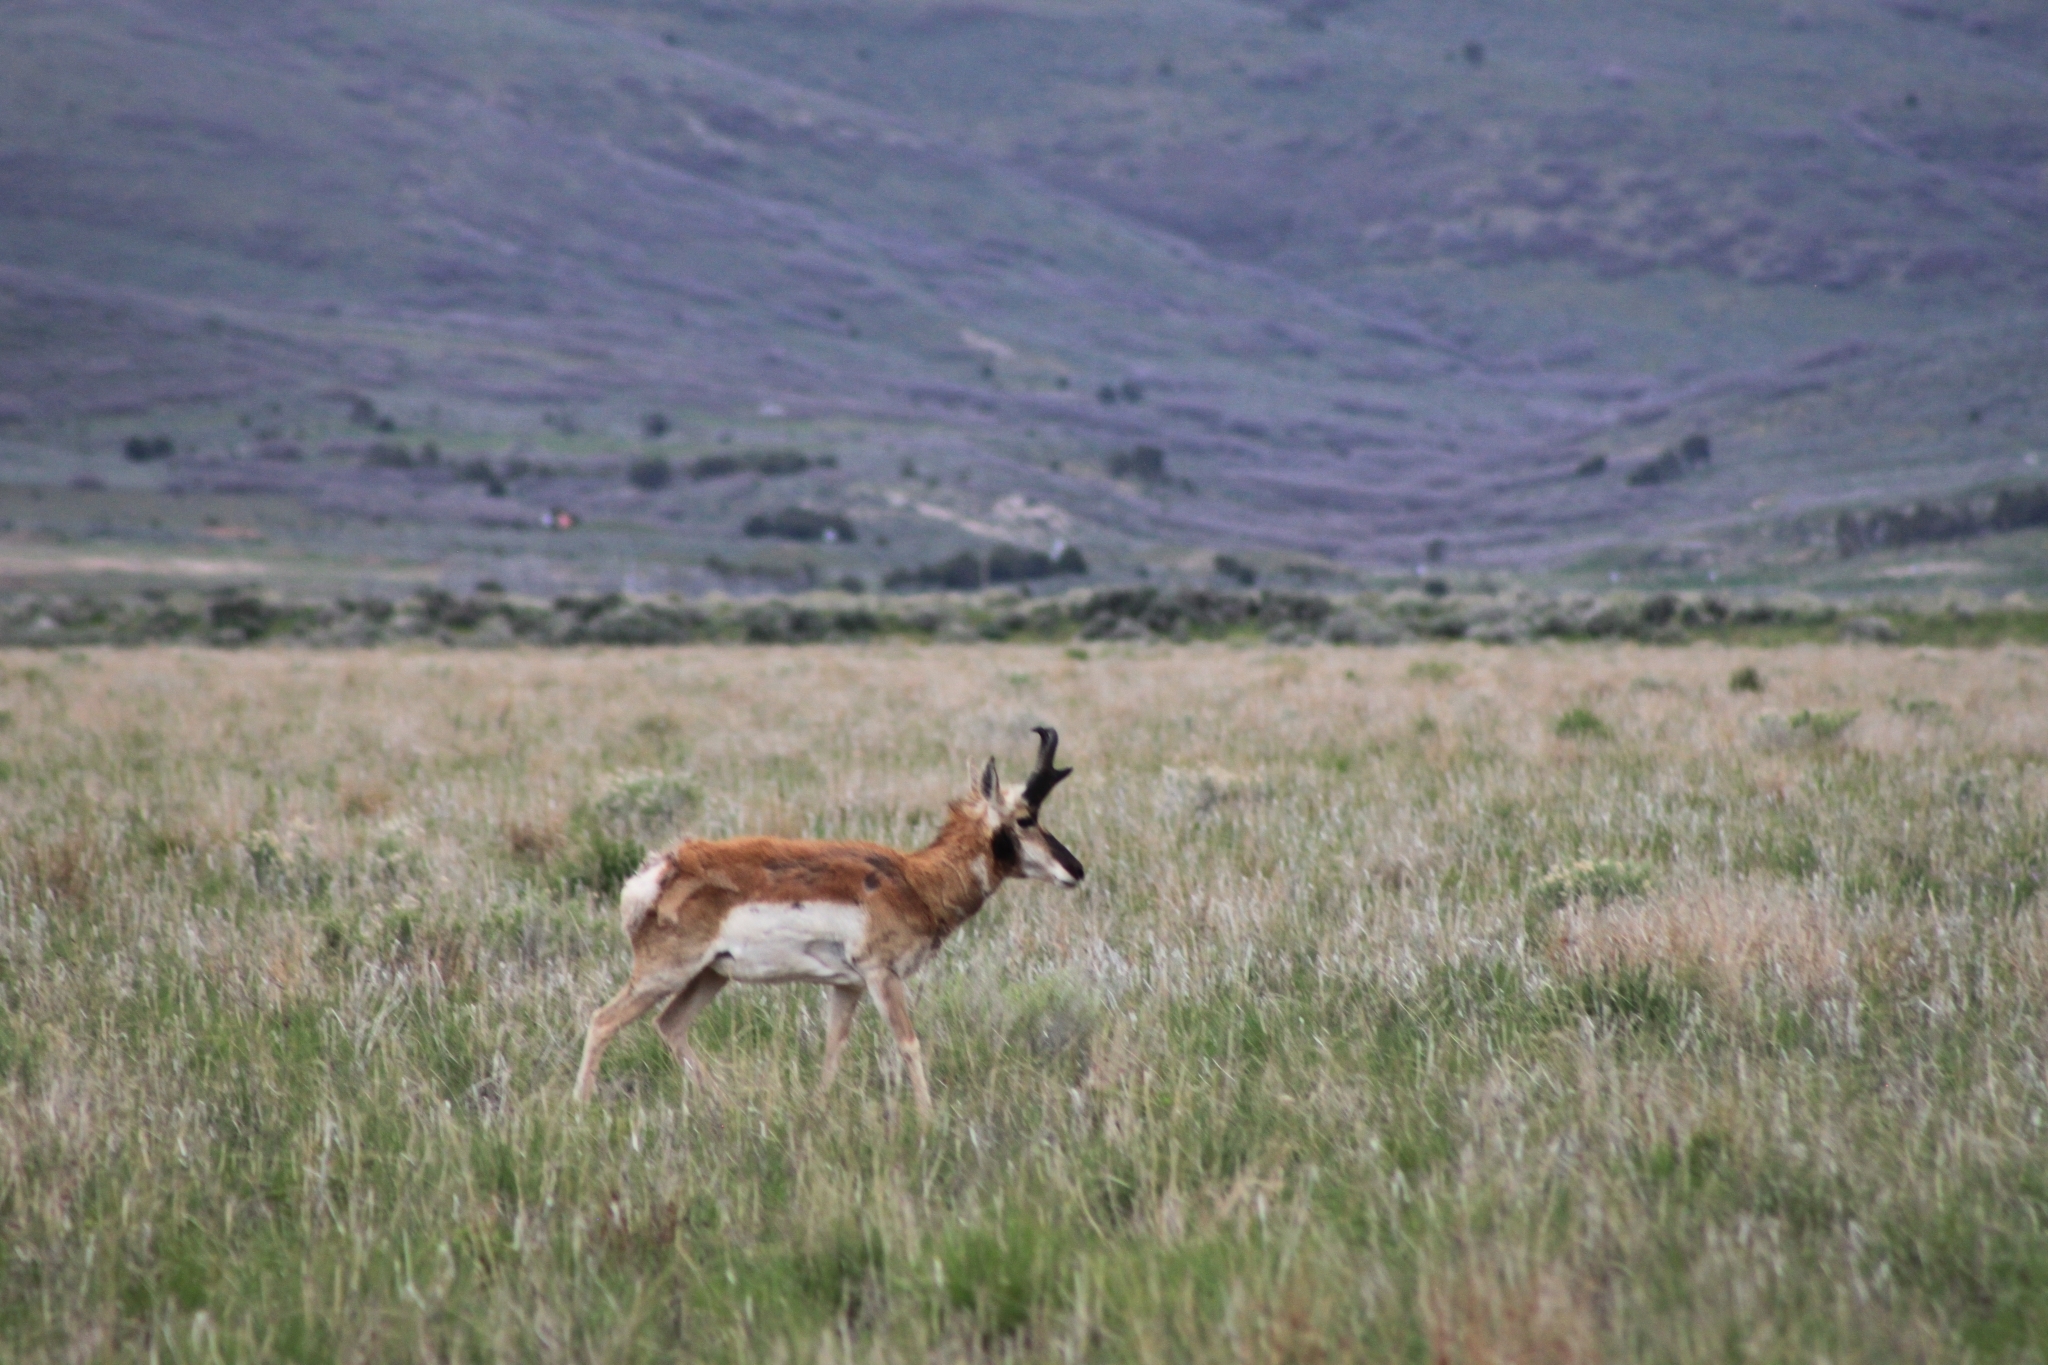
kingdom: Animalia
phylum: Chordata
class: Mammalia
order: Artiodactyla
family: Antilocapridae
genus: Antilocapra
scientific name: Antilocapra americana
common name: Pronghorn
